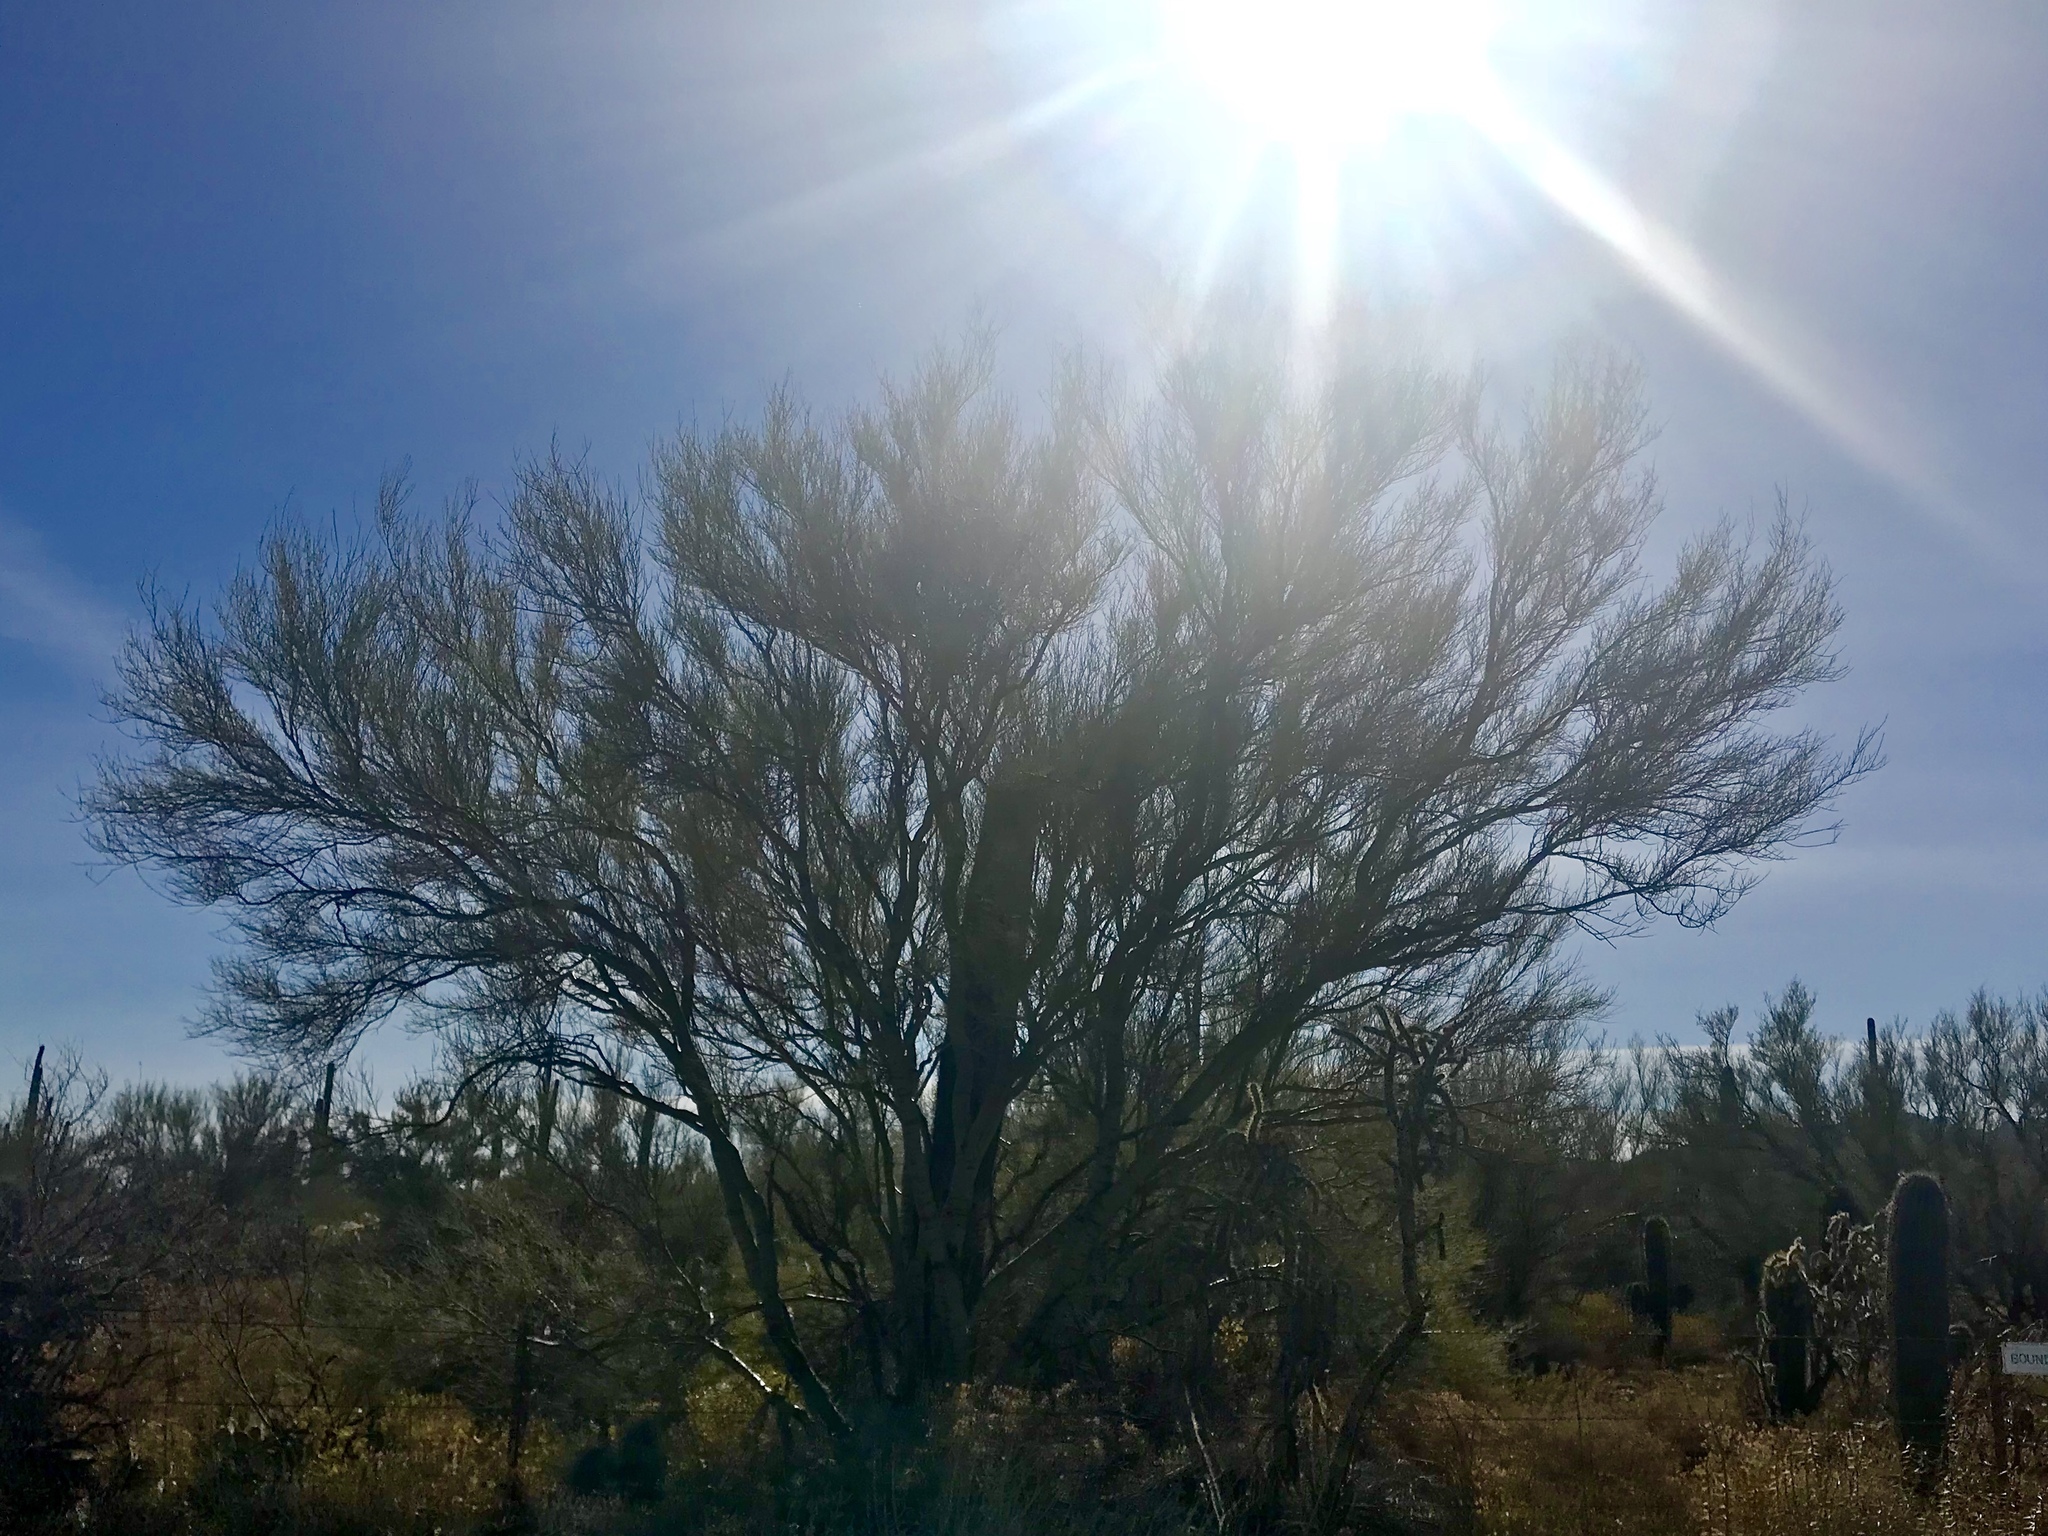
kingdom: Plantae
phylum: Tracheophyta
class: Magnoliopsida
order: Fabales
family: Fabaceae
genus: Parkinsonia
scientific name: Parkinsonia microphylla
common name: Yellow paloverde
